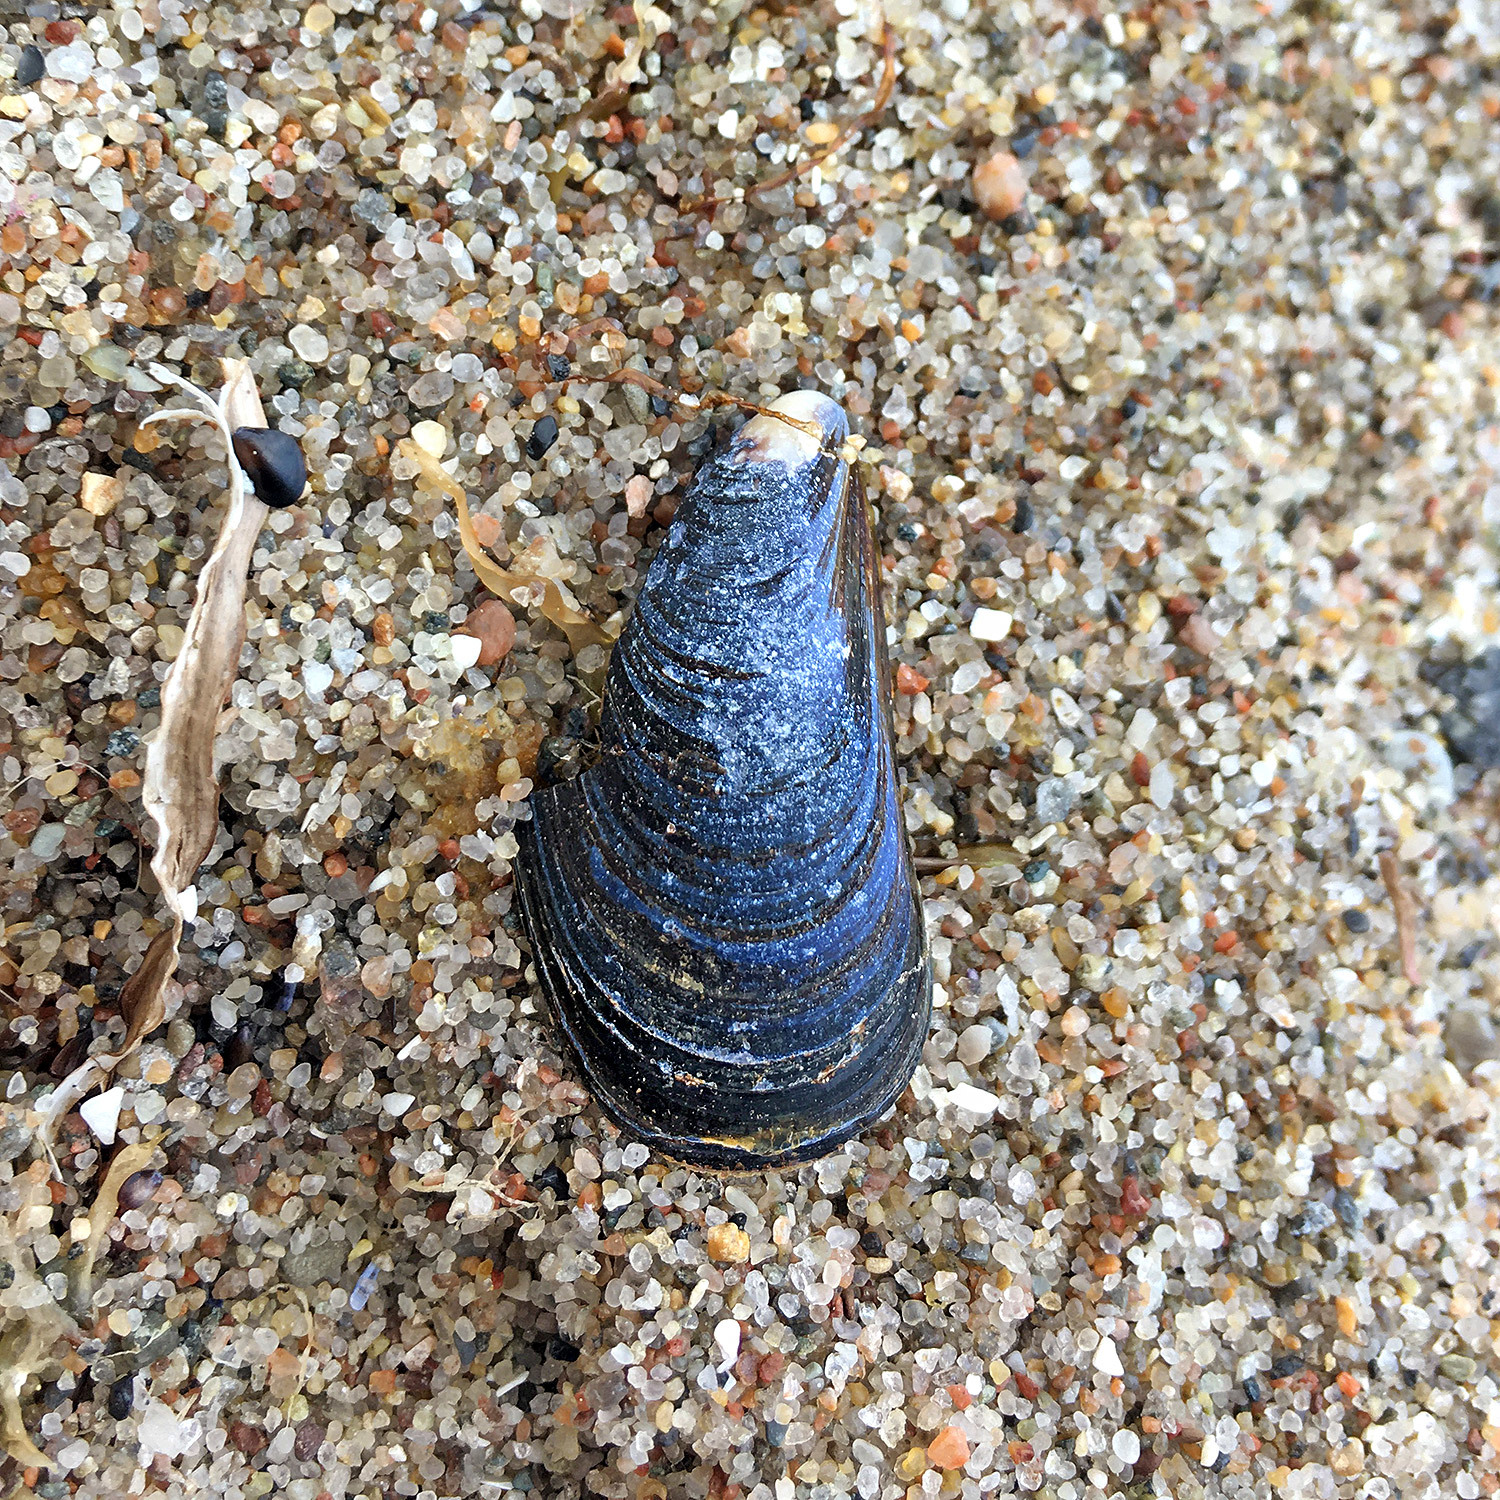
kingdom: Animalia
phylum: Mollusca
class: Bivalvia
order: Mytilida
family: Mytilidae
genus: Mytilus
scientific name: Mytilus edulis
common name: Blue mussel
